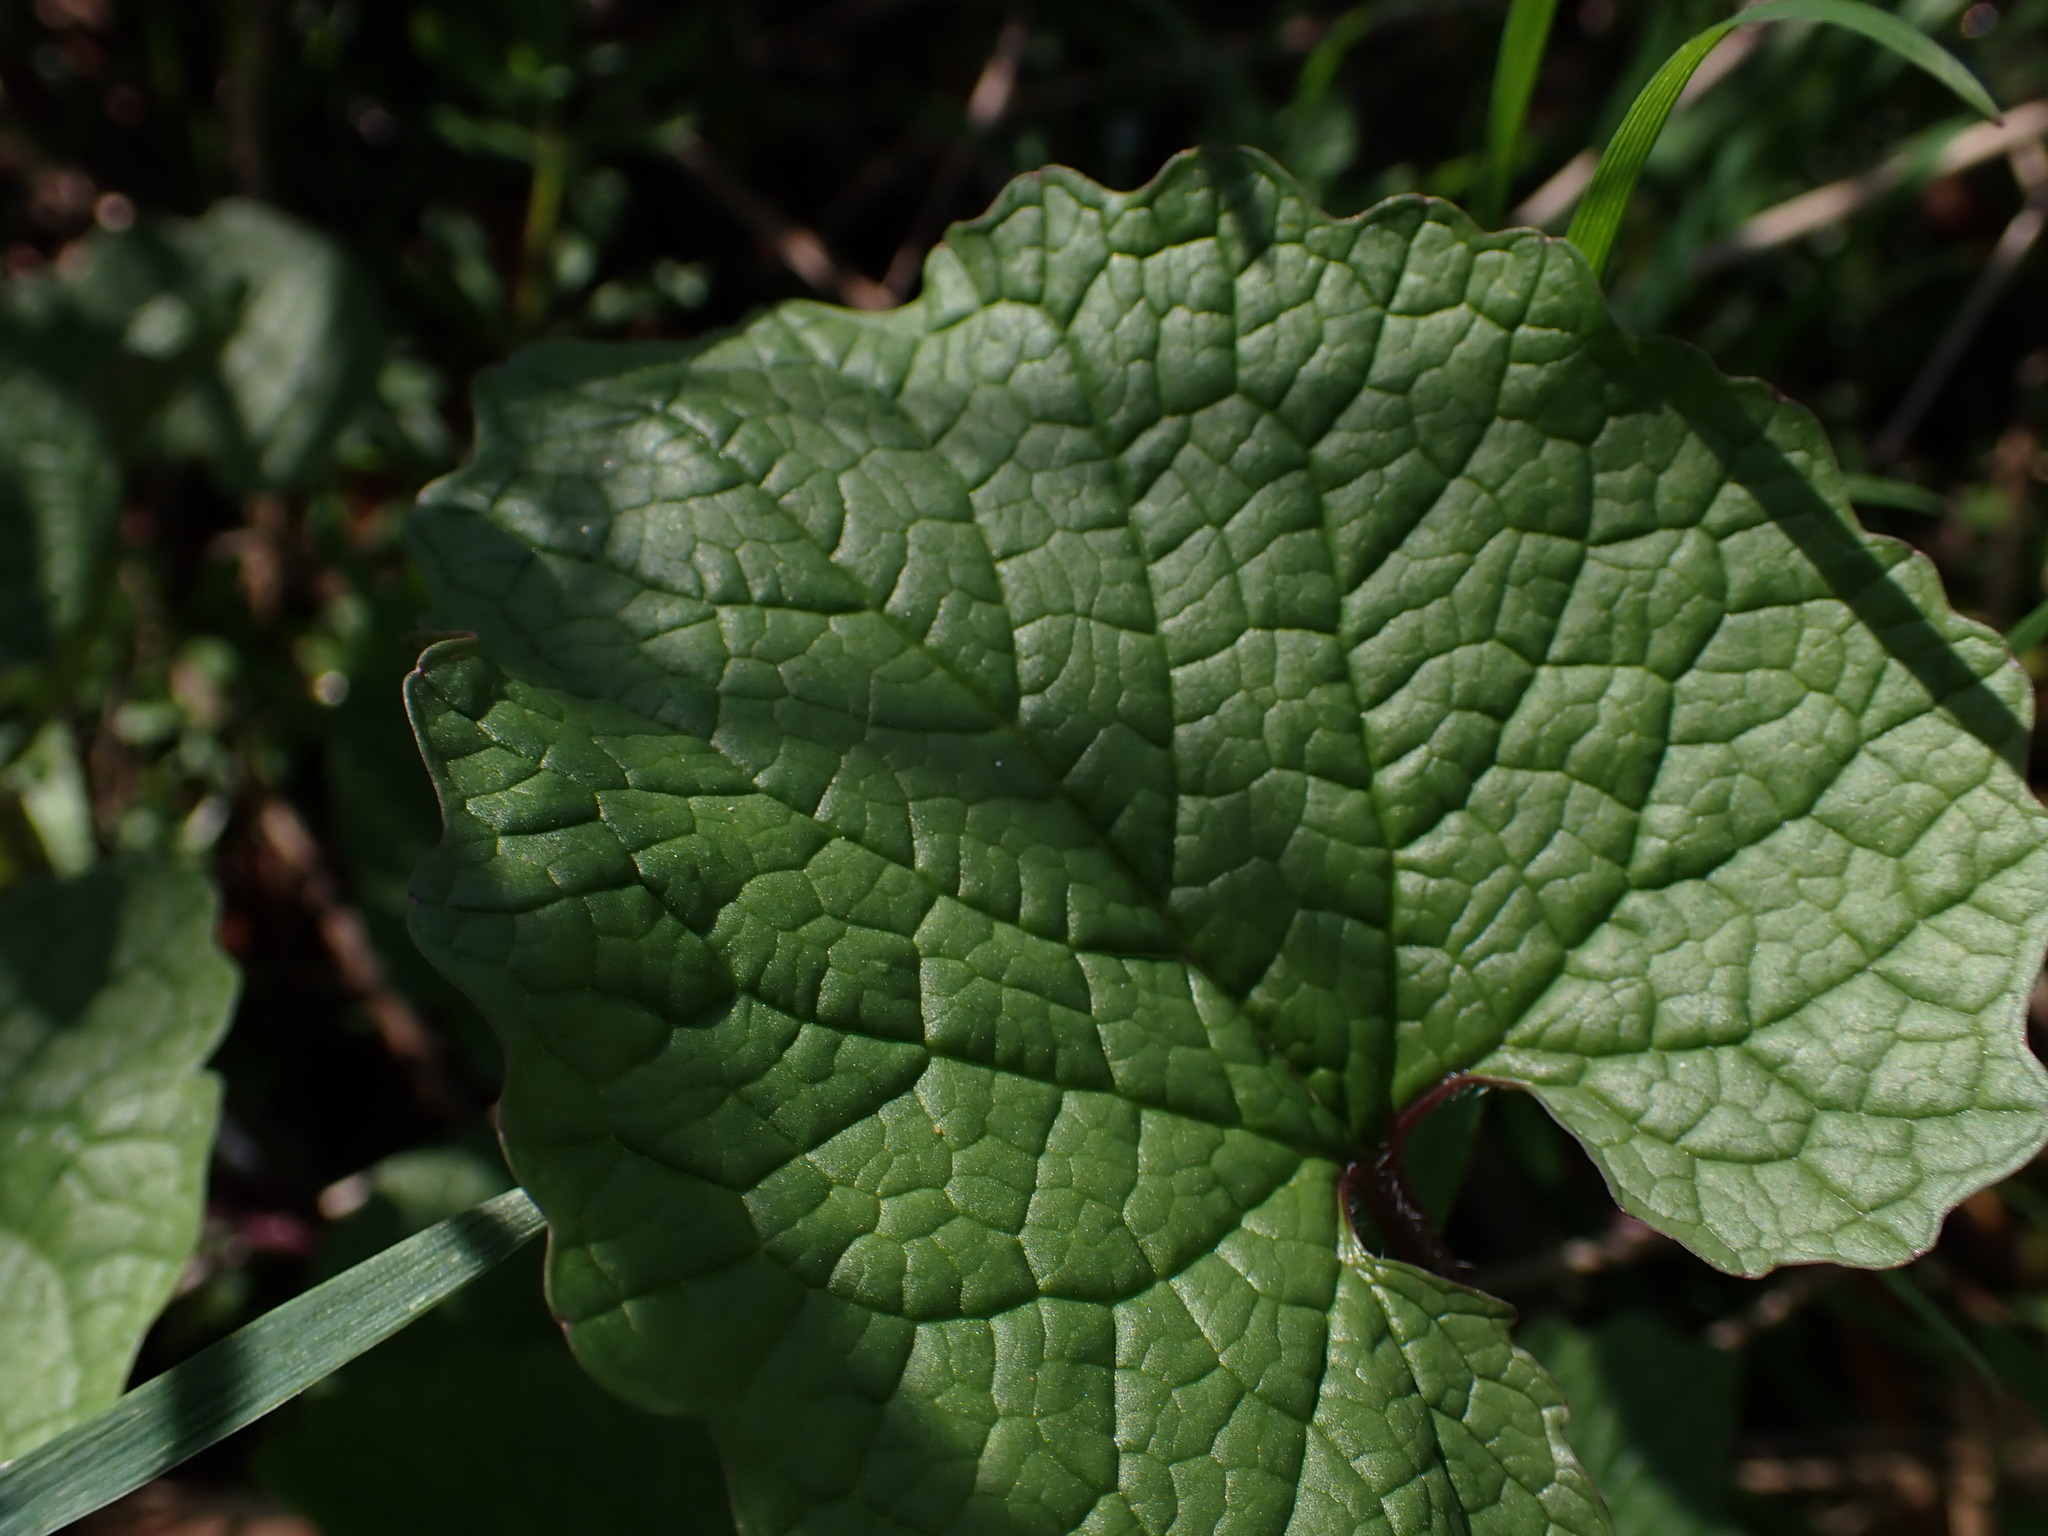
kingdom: Plantae
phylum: Tracheophyta
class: Magnoliopsida
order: Brassicales
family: Brassicaceae
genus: Alliaria
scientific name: Alliaria petiolata
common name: Garlic mustard
